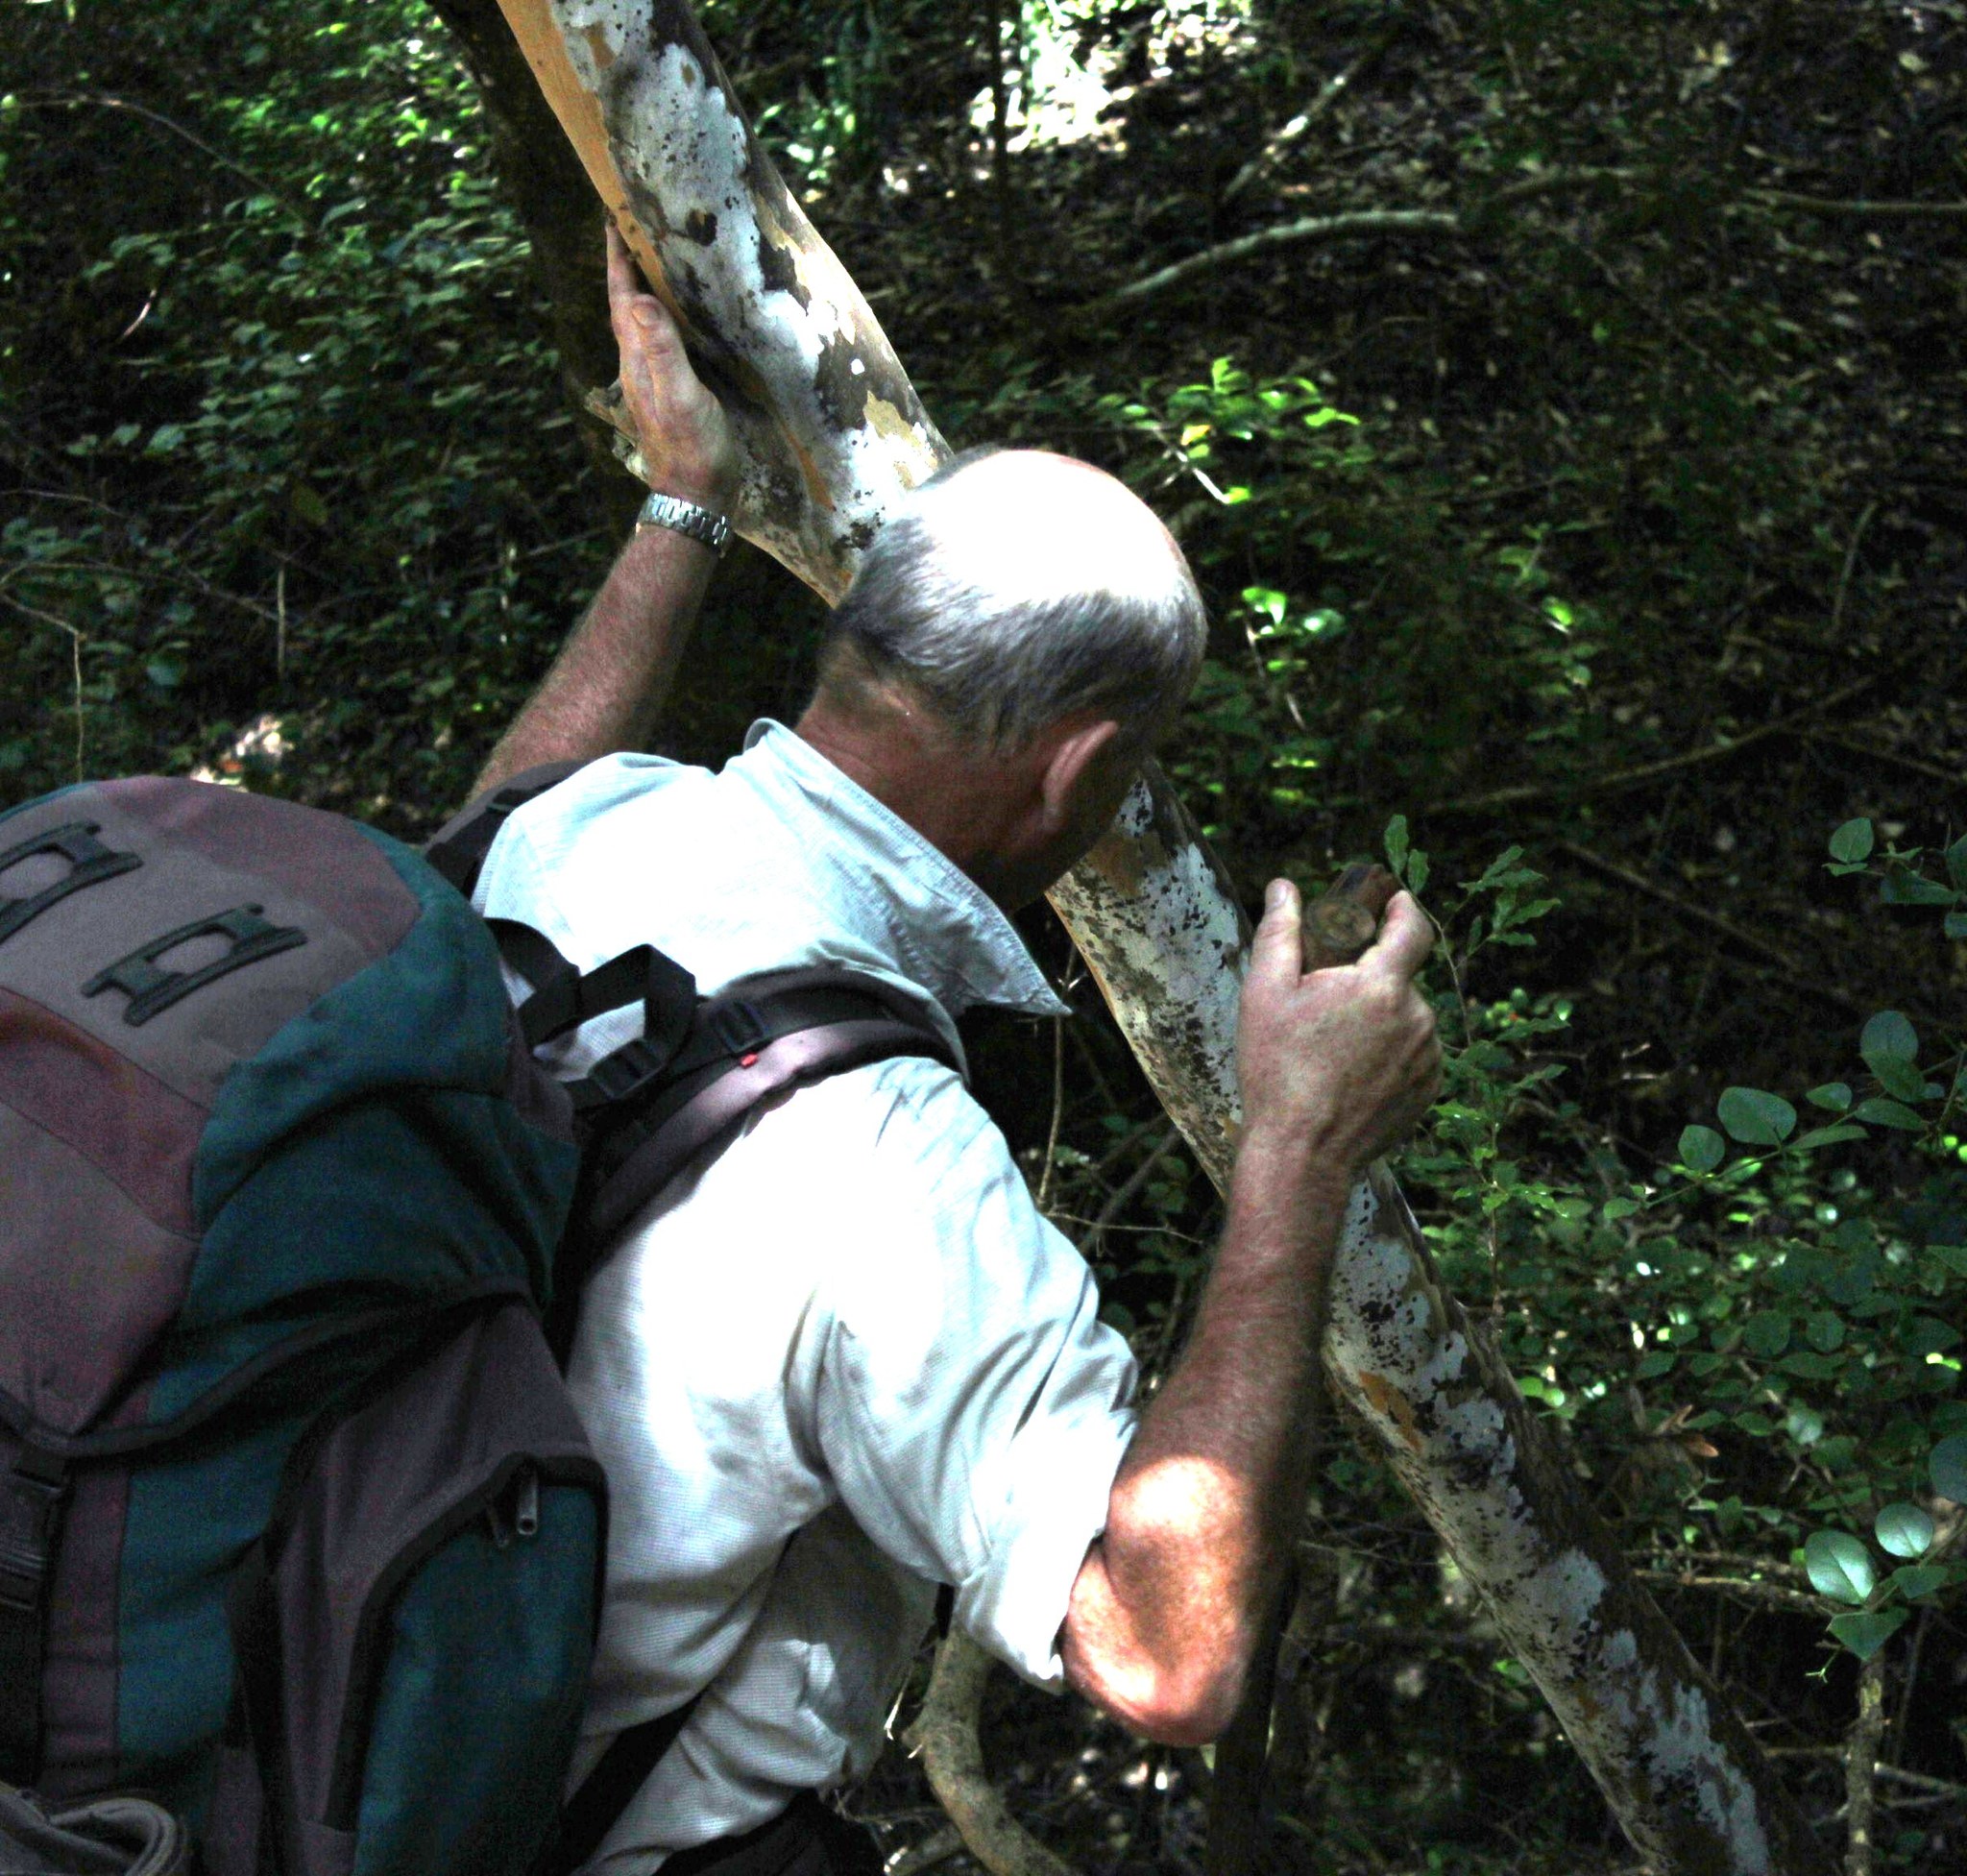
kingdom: Plantae
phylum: Tracheophyta
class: Magnoliopsida
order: Malpighiales
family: Ochnaceae
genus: Ochna
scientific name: Ochna arborea
